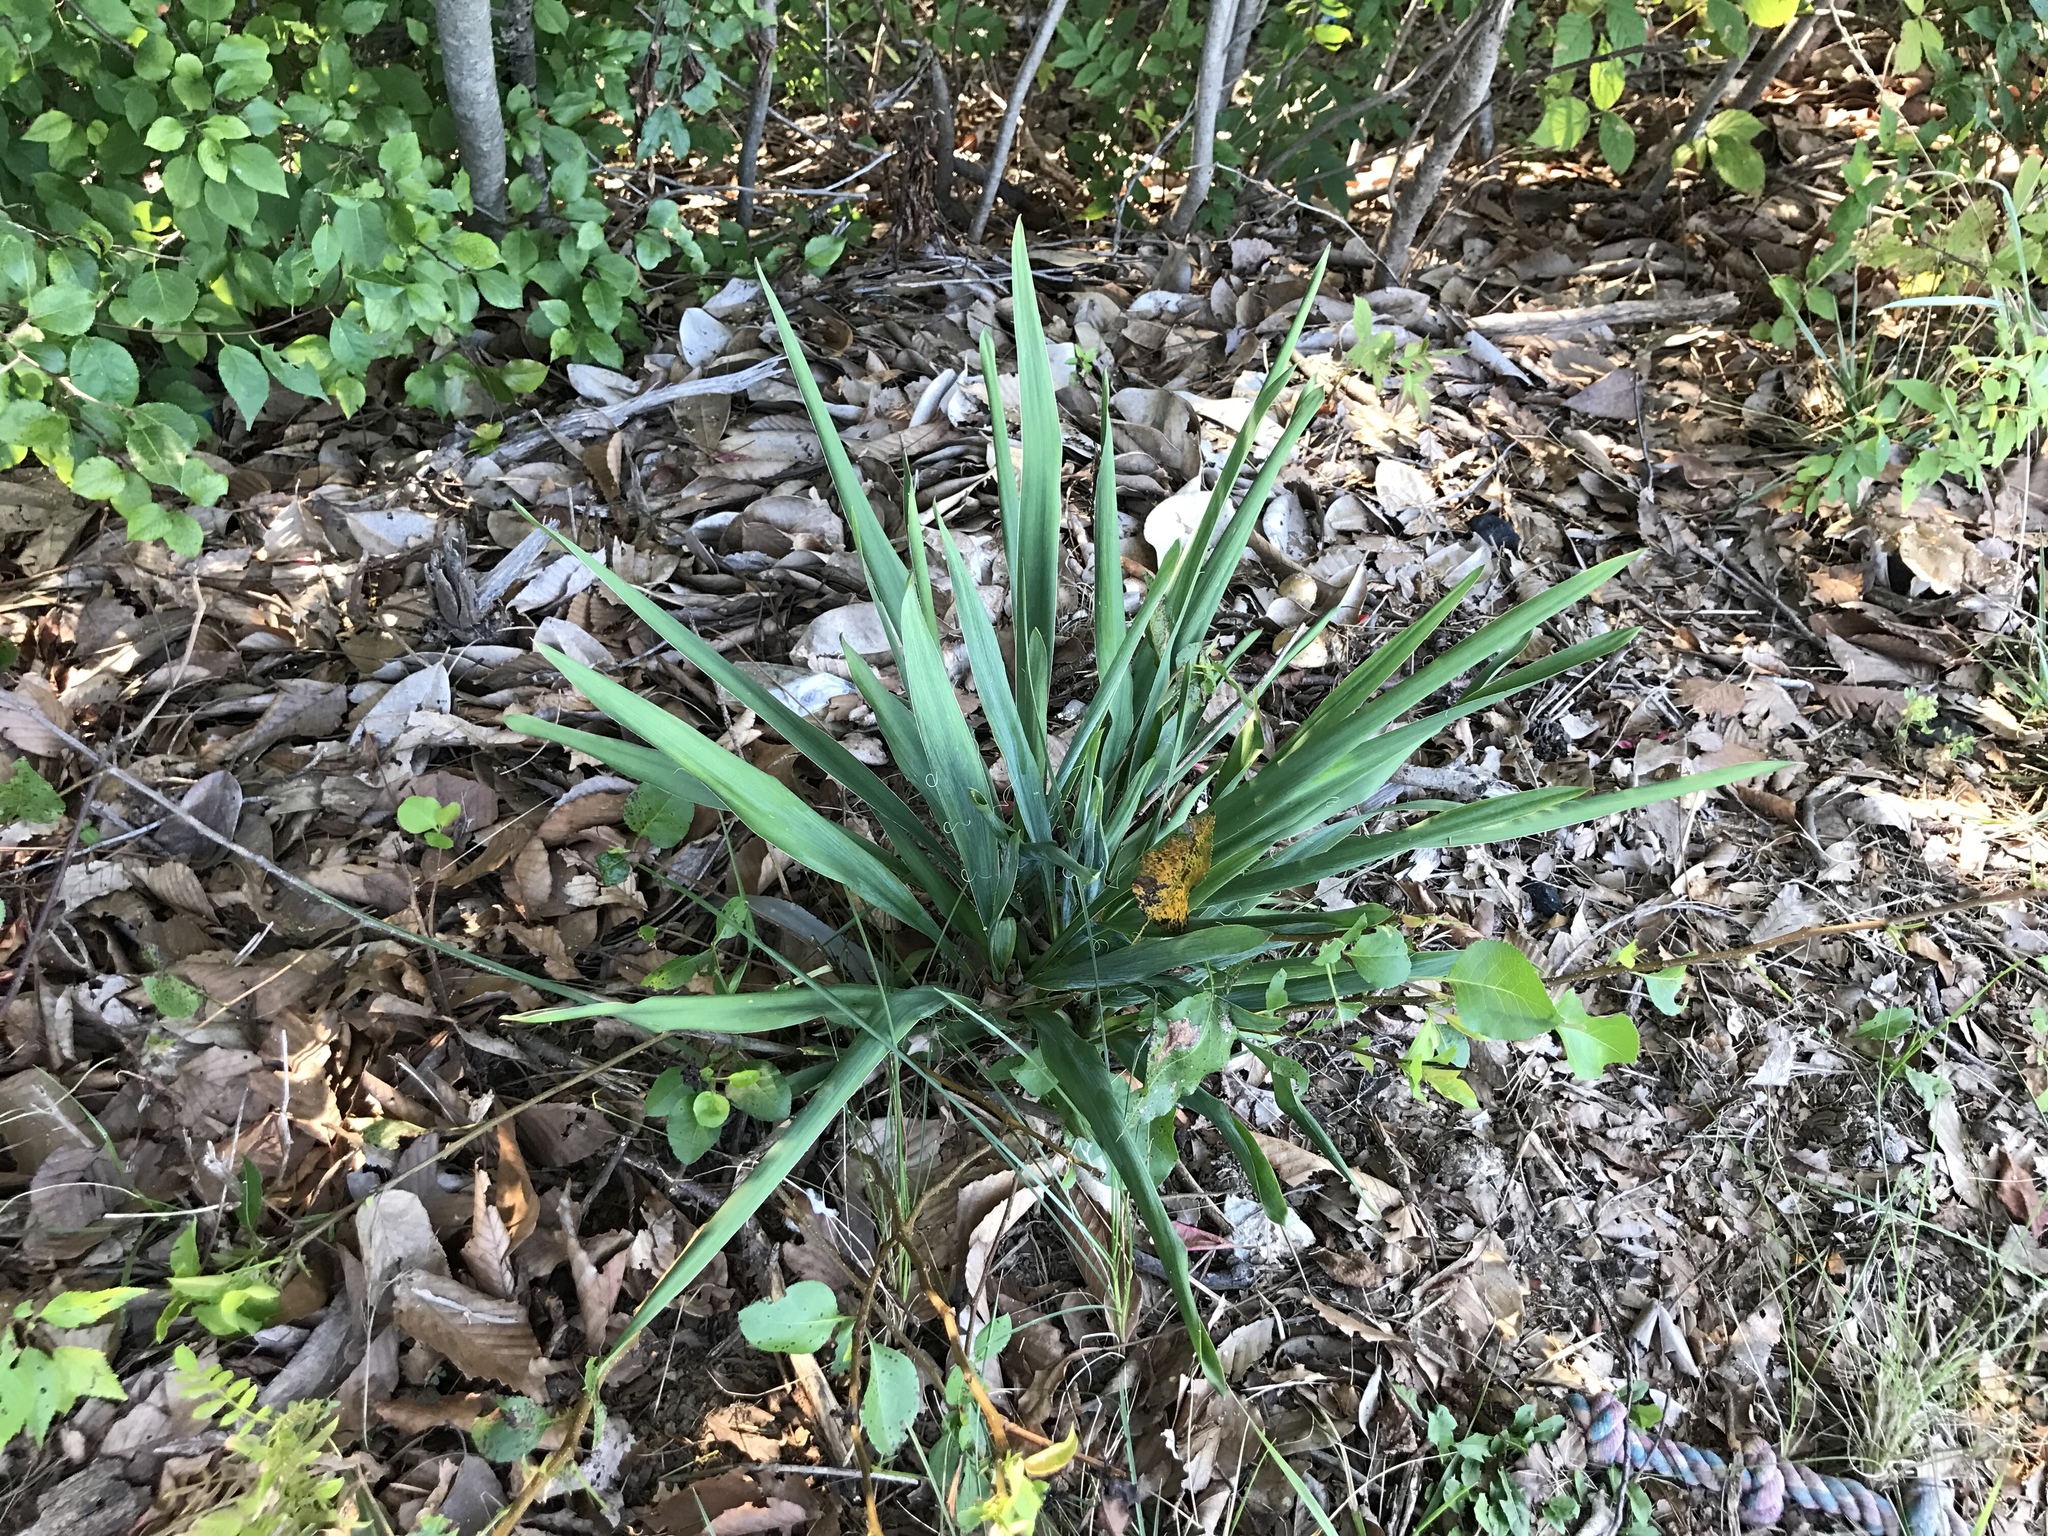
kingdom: Plantae
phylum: Tracheophyta
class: Liliopsida
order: Asparagales
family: Asparagaceae
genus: Yucca
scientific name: Yucca filamentosa
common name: Adam's-needle
